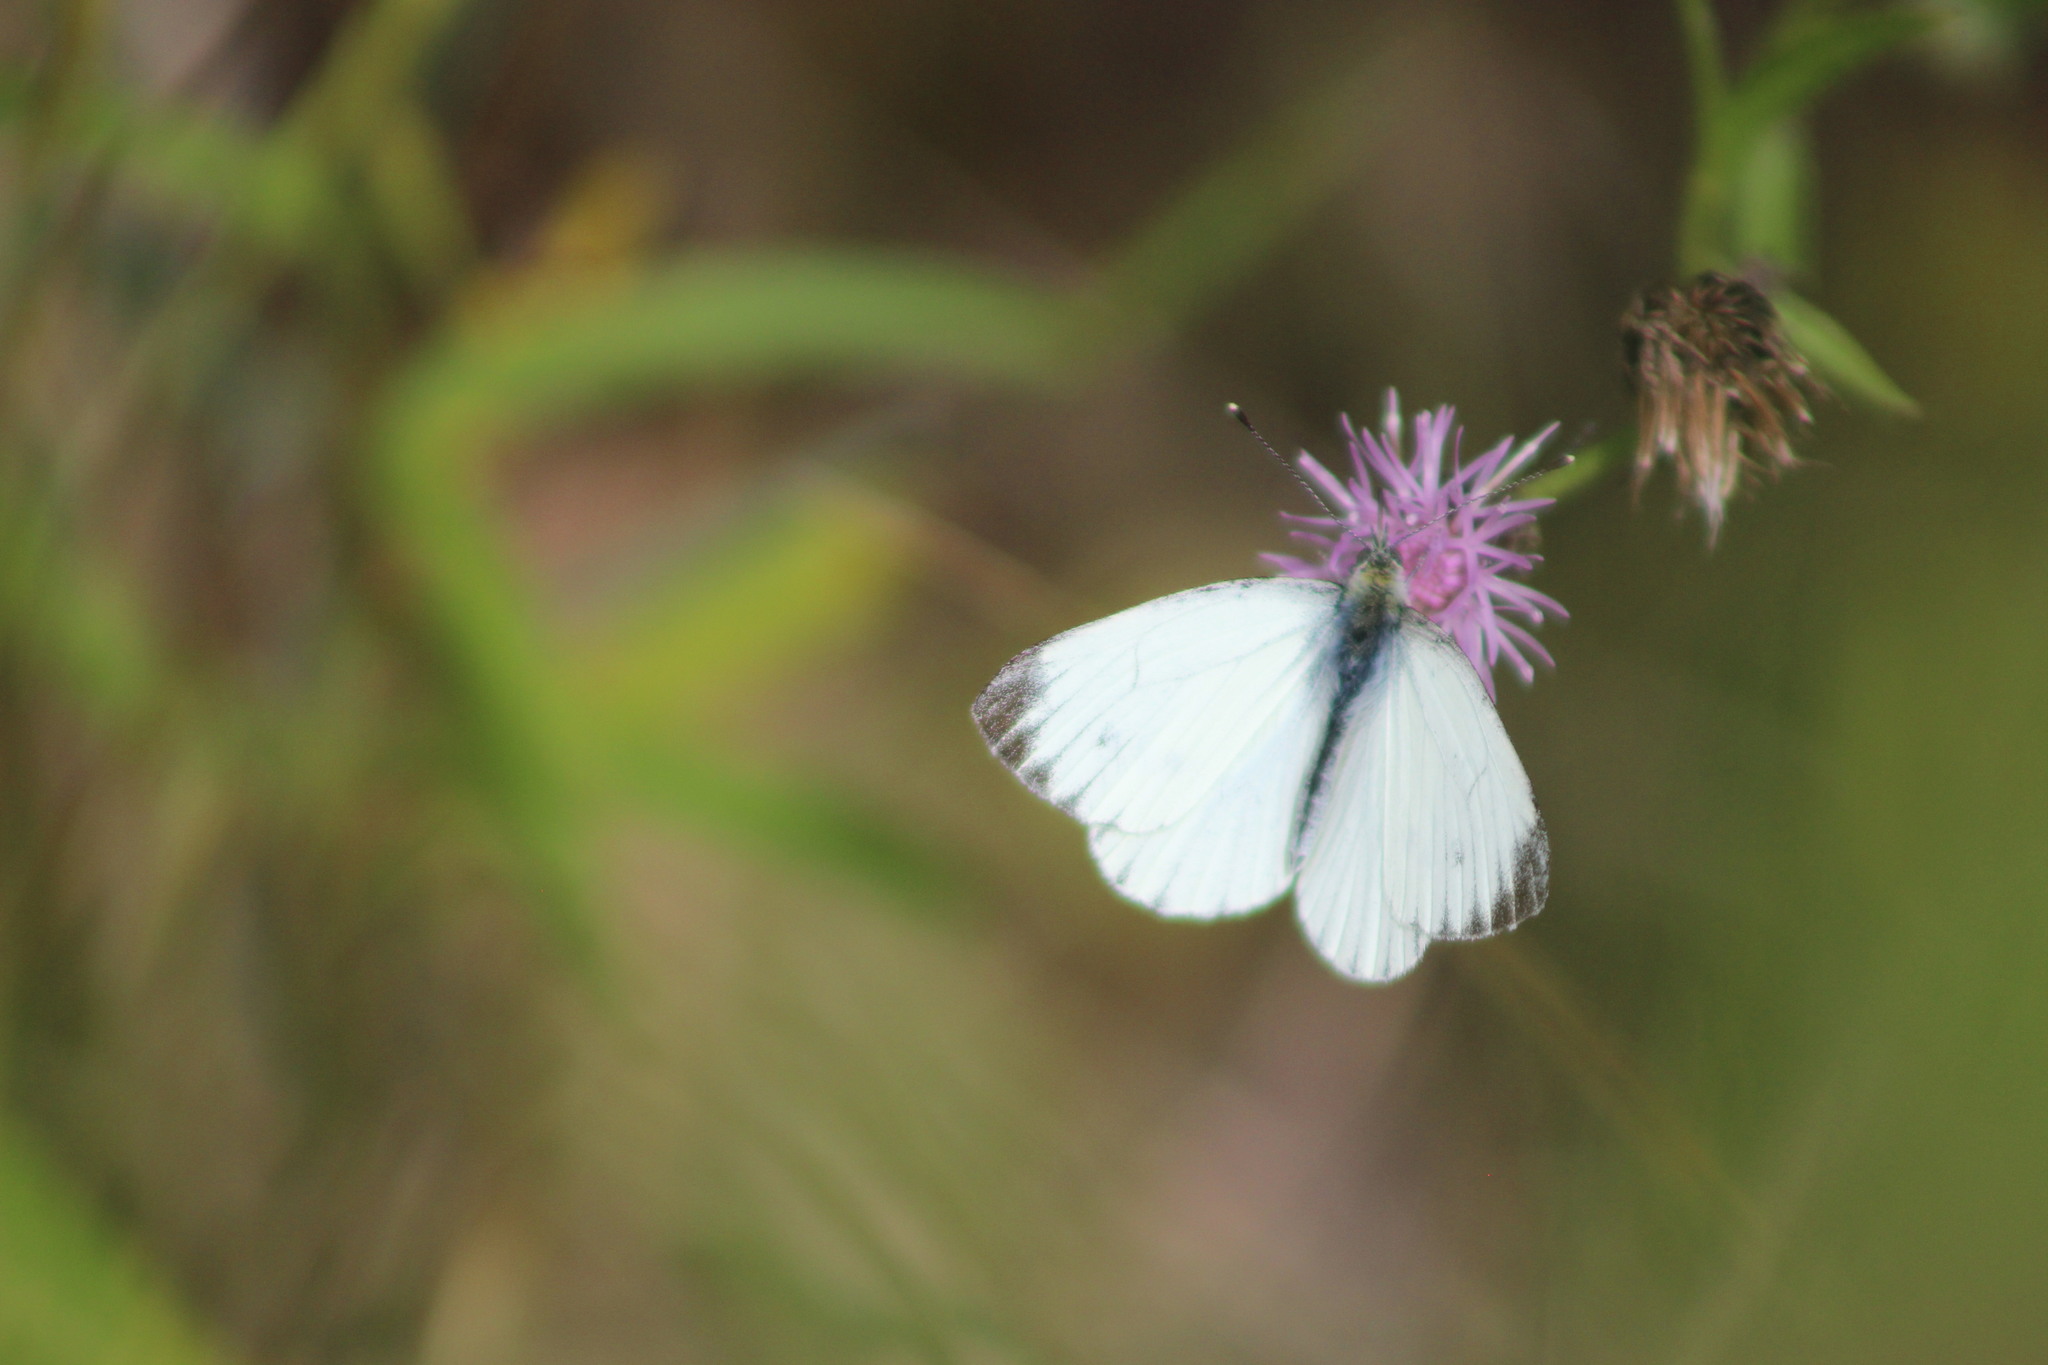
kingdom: Animalia
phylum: Arthropoda
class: Insecta
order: Lepidoptera
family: Pieridae
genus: Pieris
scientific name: Pieris napi
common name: Green-veined white
